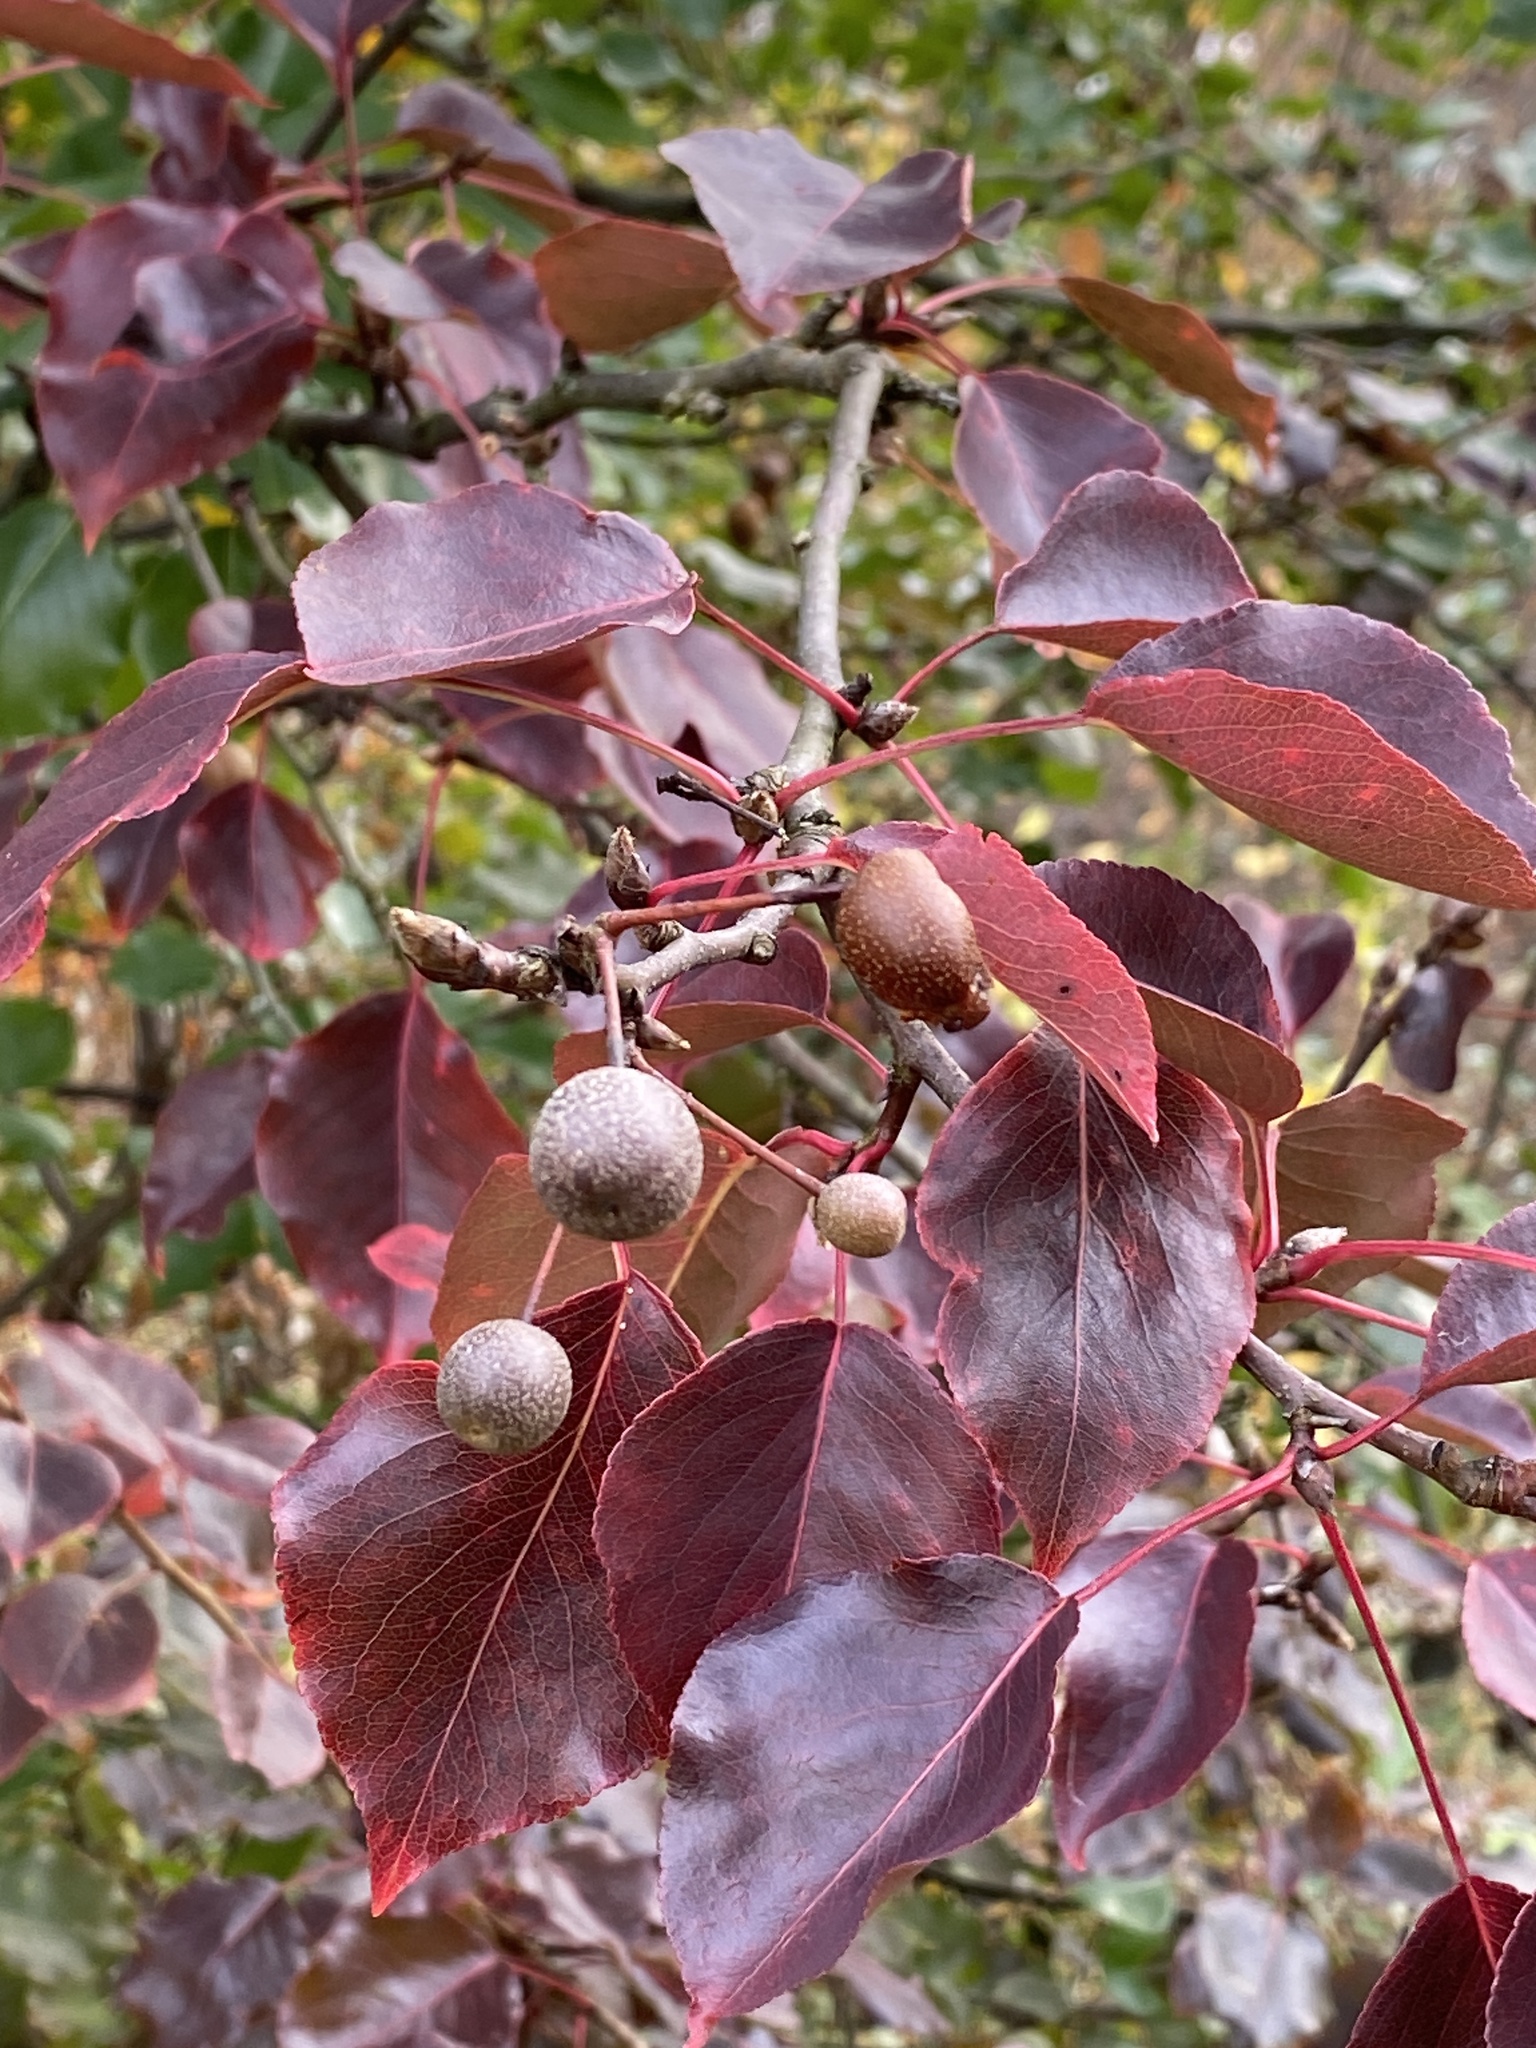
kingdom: Plantae
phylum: Tracheophyta
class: Magnoliopsida
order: Rosales
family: Rosaceae
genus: Pyrus
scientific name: Pyrus calleryana
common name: Callery pear
